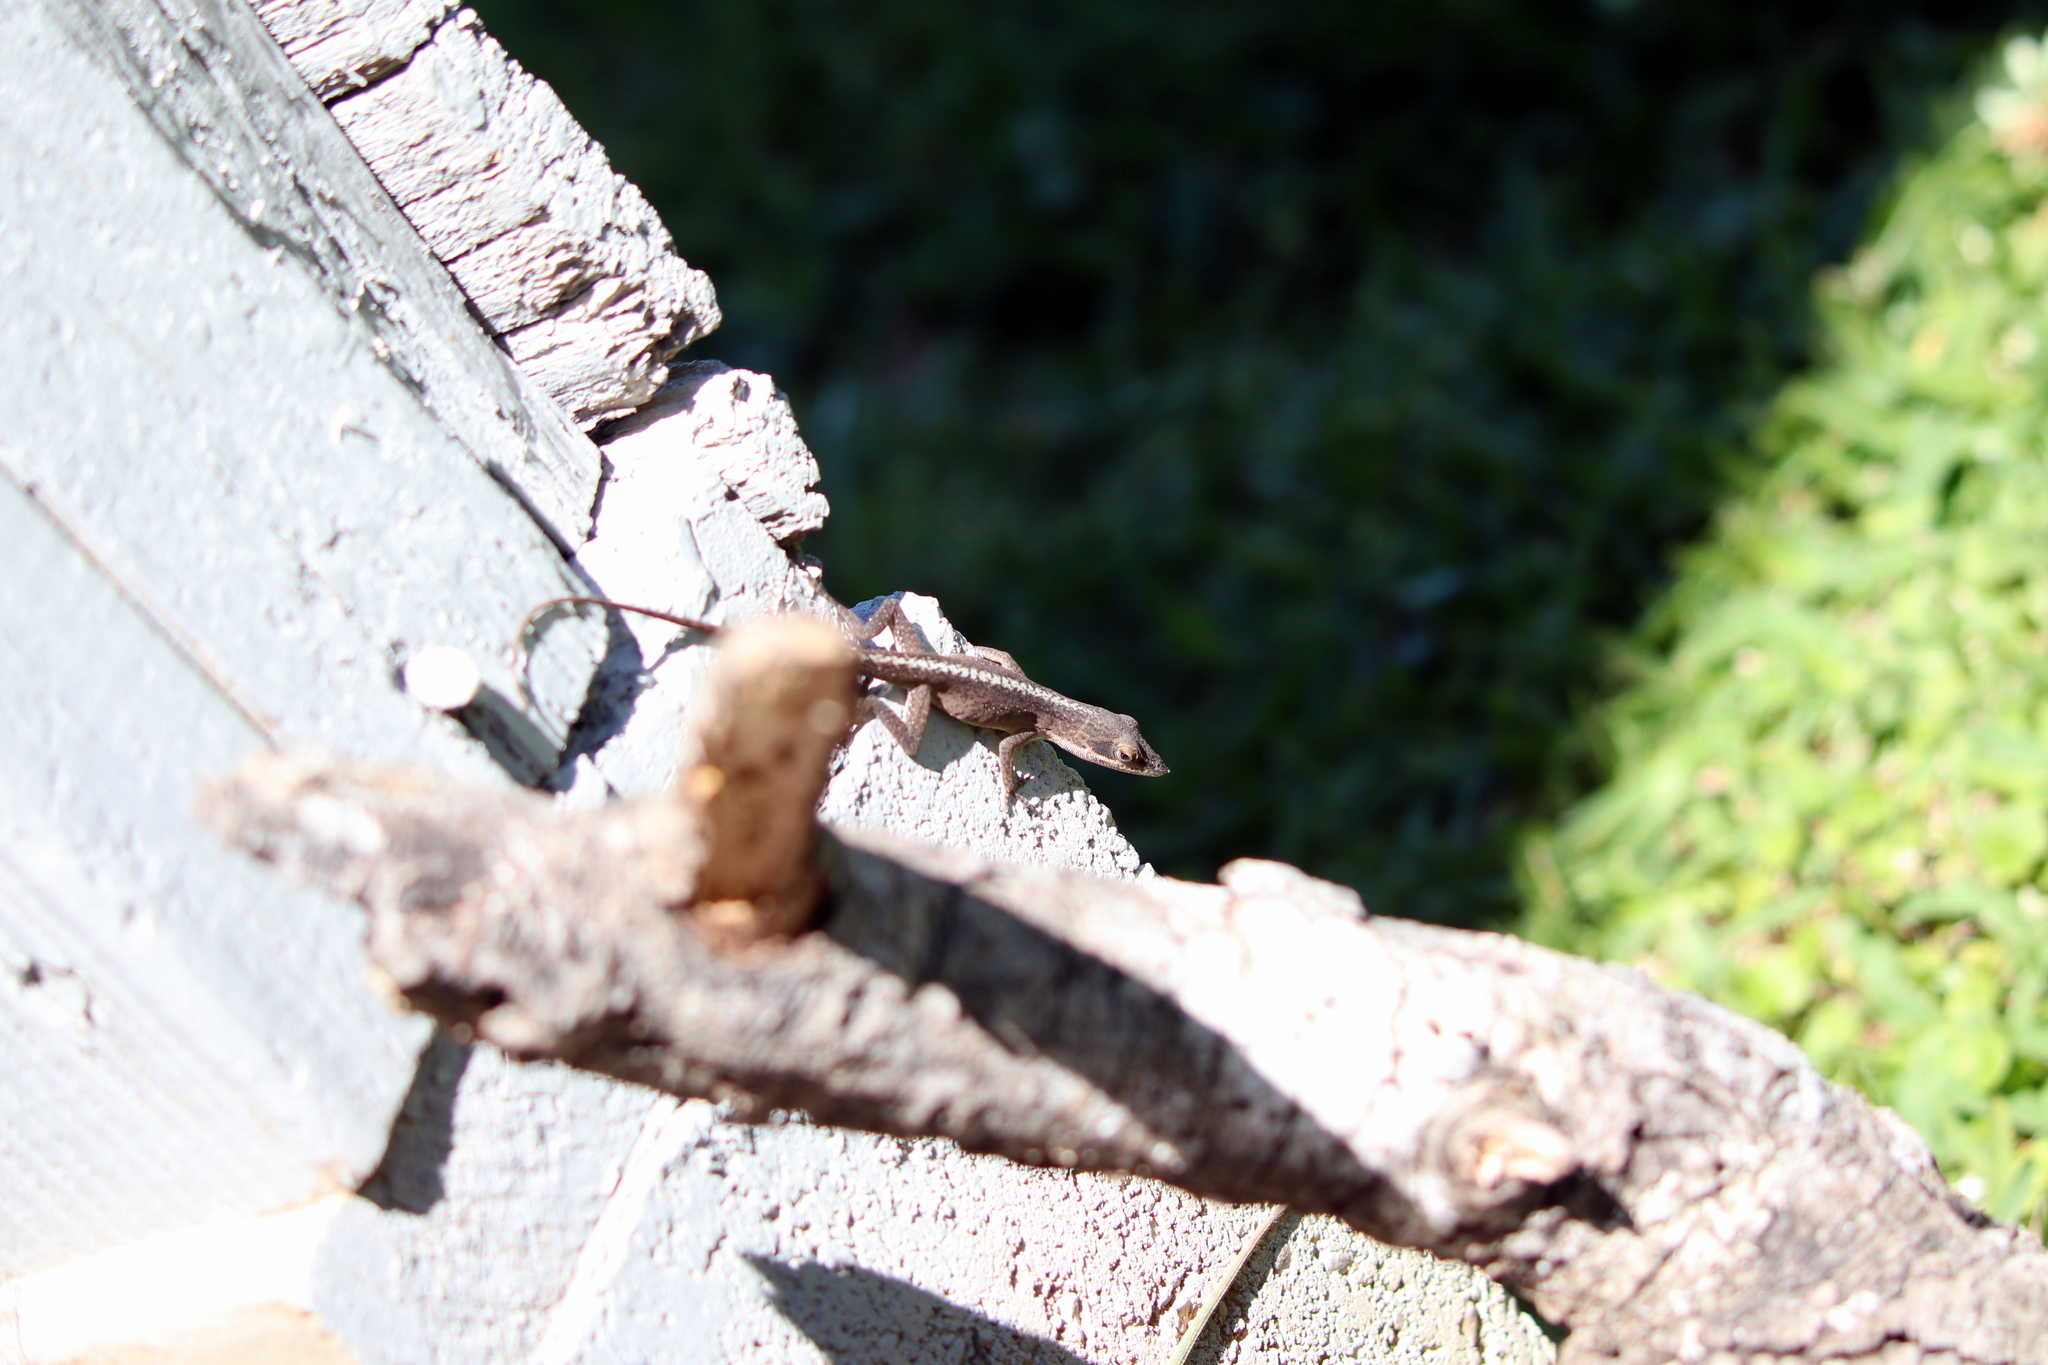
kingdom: Animalia
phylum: Chordata
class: Squamata
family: Dactyloidae
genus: Anolis
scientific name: Anolis carolinensis
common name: Green anole
